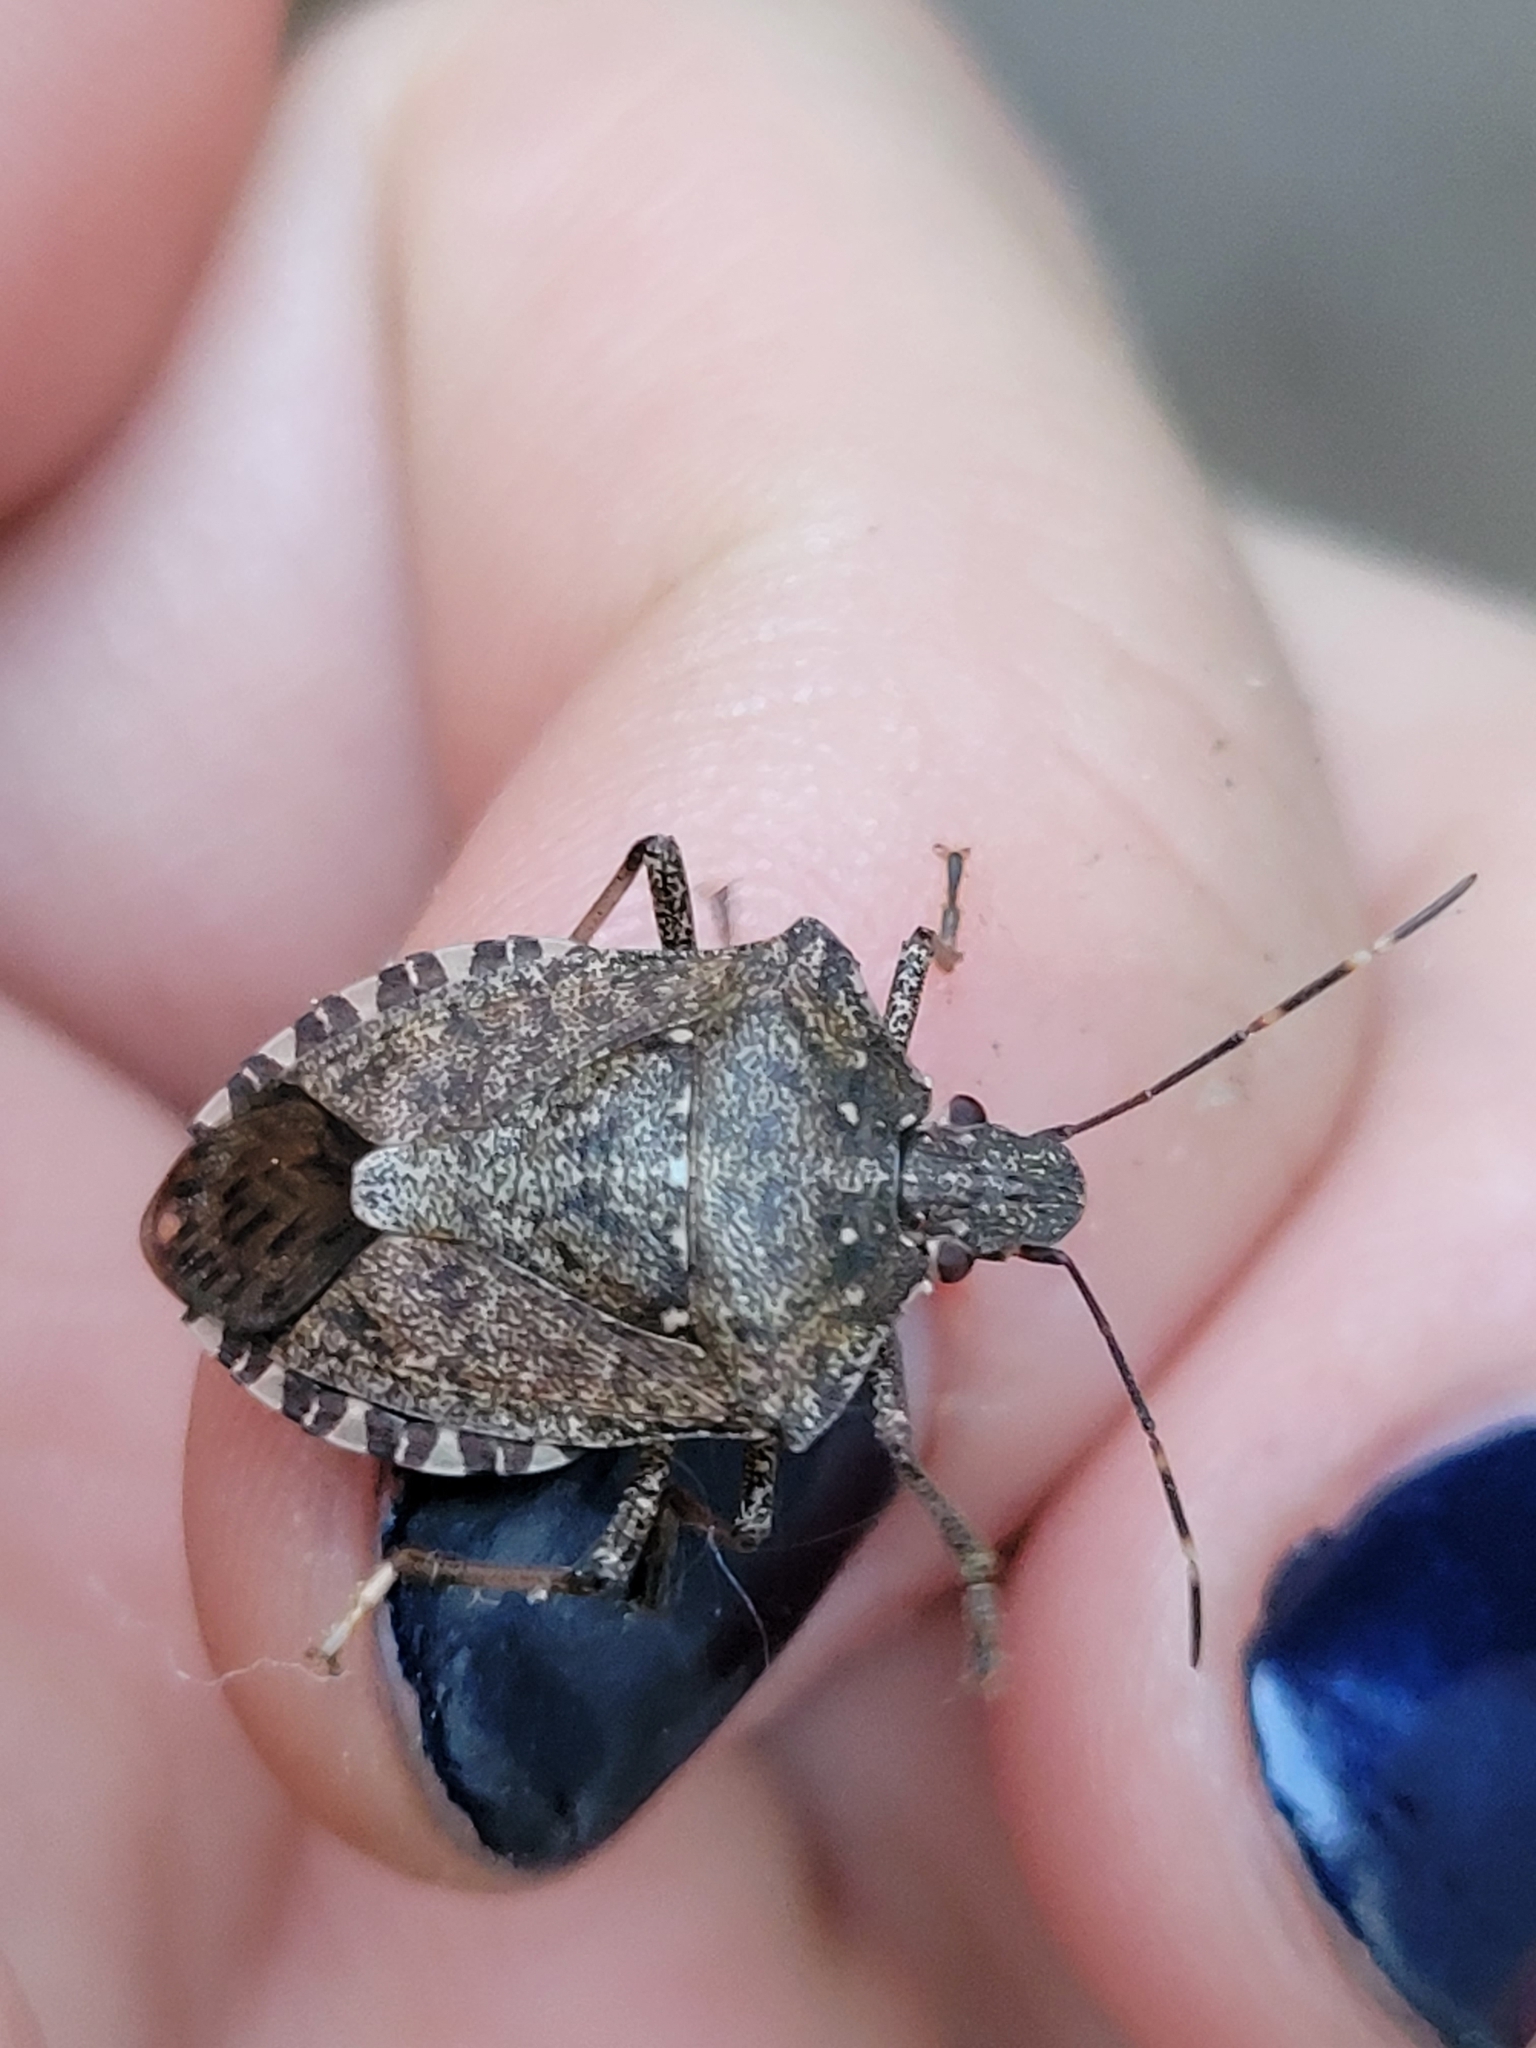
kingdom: Animalia
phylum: Arthropoda
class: Insecta
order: Hemiptera
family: Pentatomidae
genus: Halyomorpha
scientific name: Halyomorpha halys
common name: Brown marmorated stink bug
